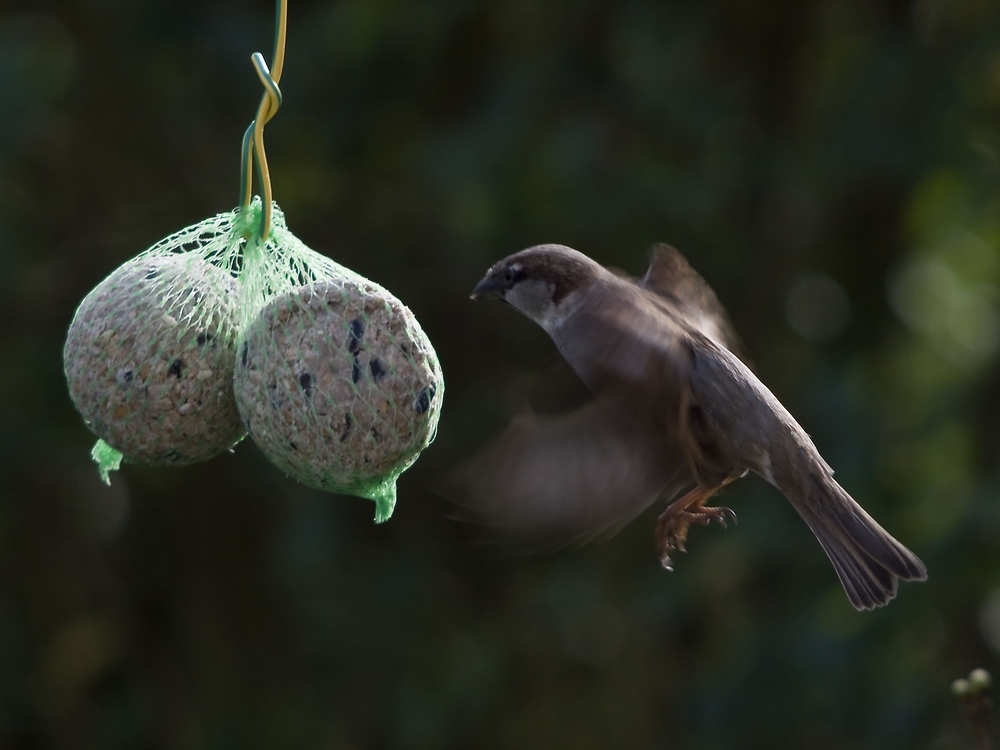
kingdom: Animalia
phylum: Chordata
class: Aves
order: Passeriformes
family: Passeridae
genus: Passer
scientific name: Passer domesticus
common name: House sparrow
